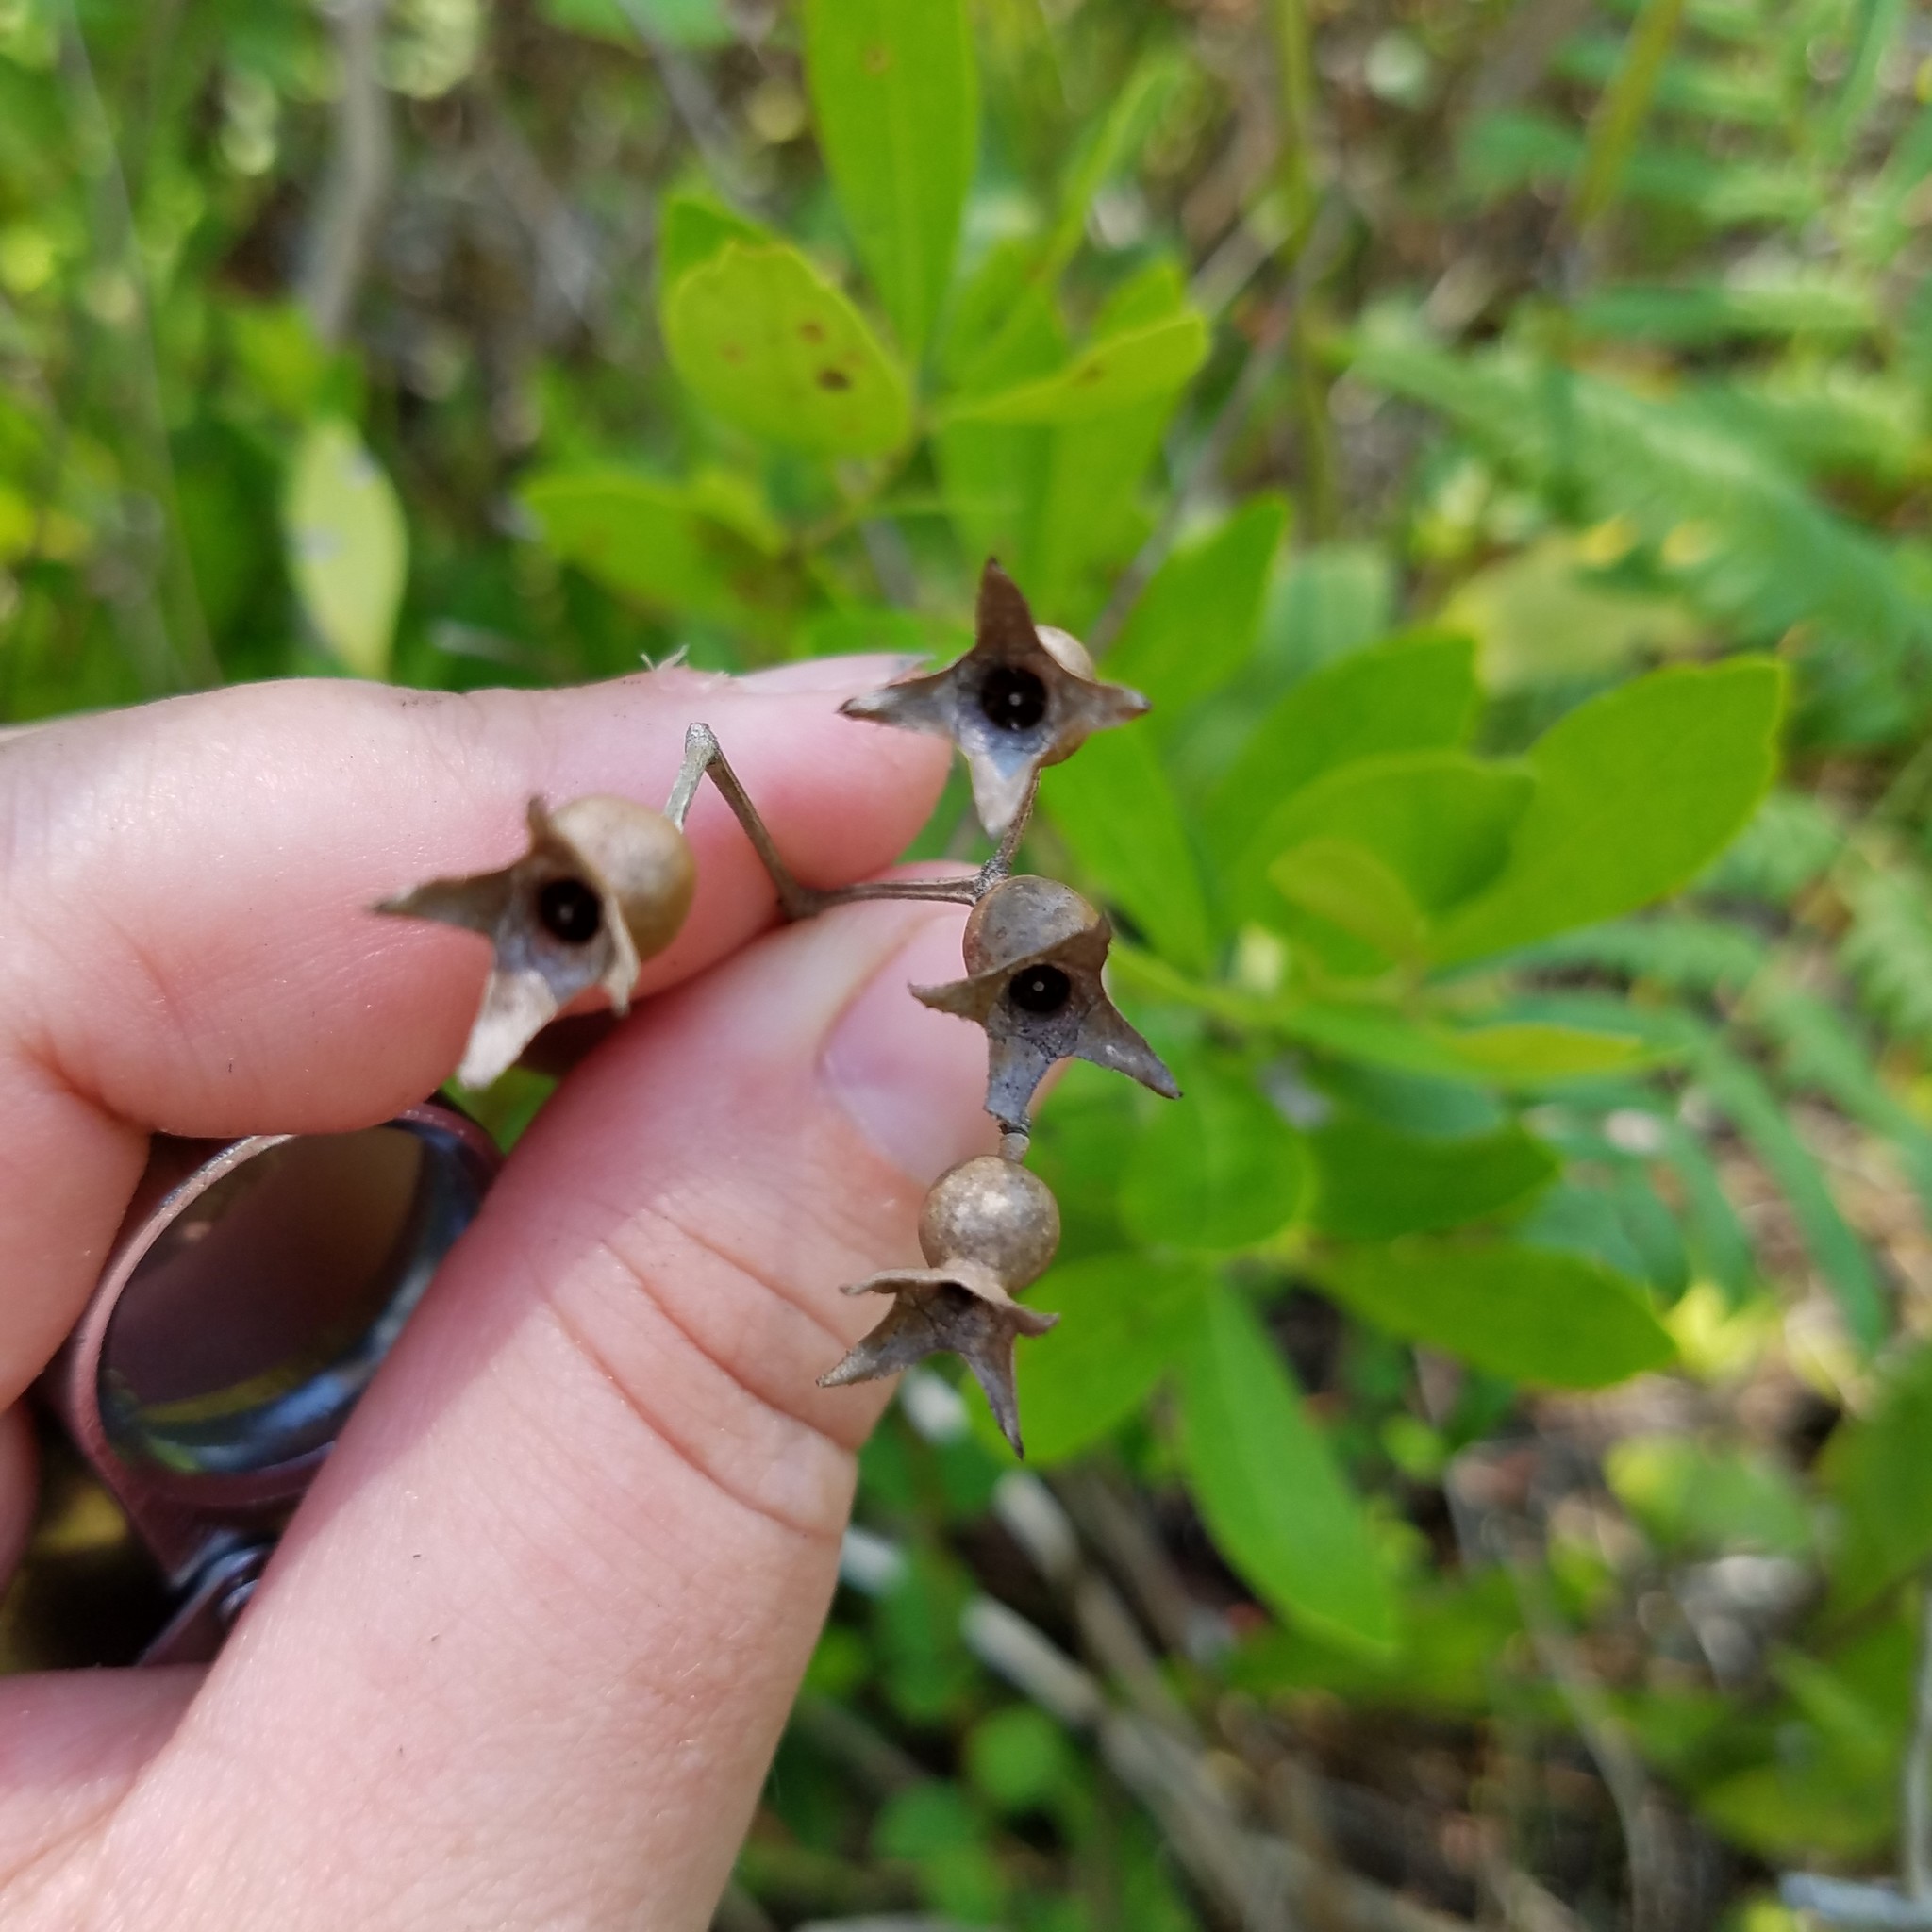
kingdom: Plantae
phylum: Tracheophyta
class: Magnoliopsida
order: Myrtales
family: Melastomataceae
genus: Rhexia
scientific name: Rhexia petiolata
